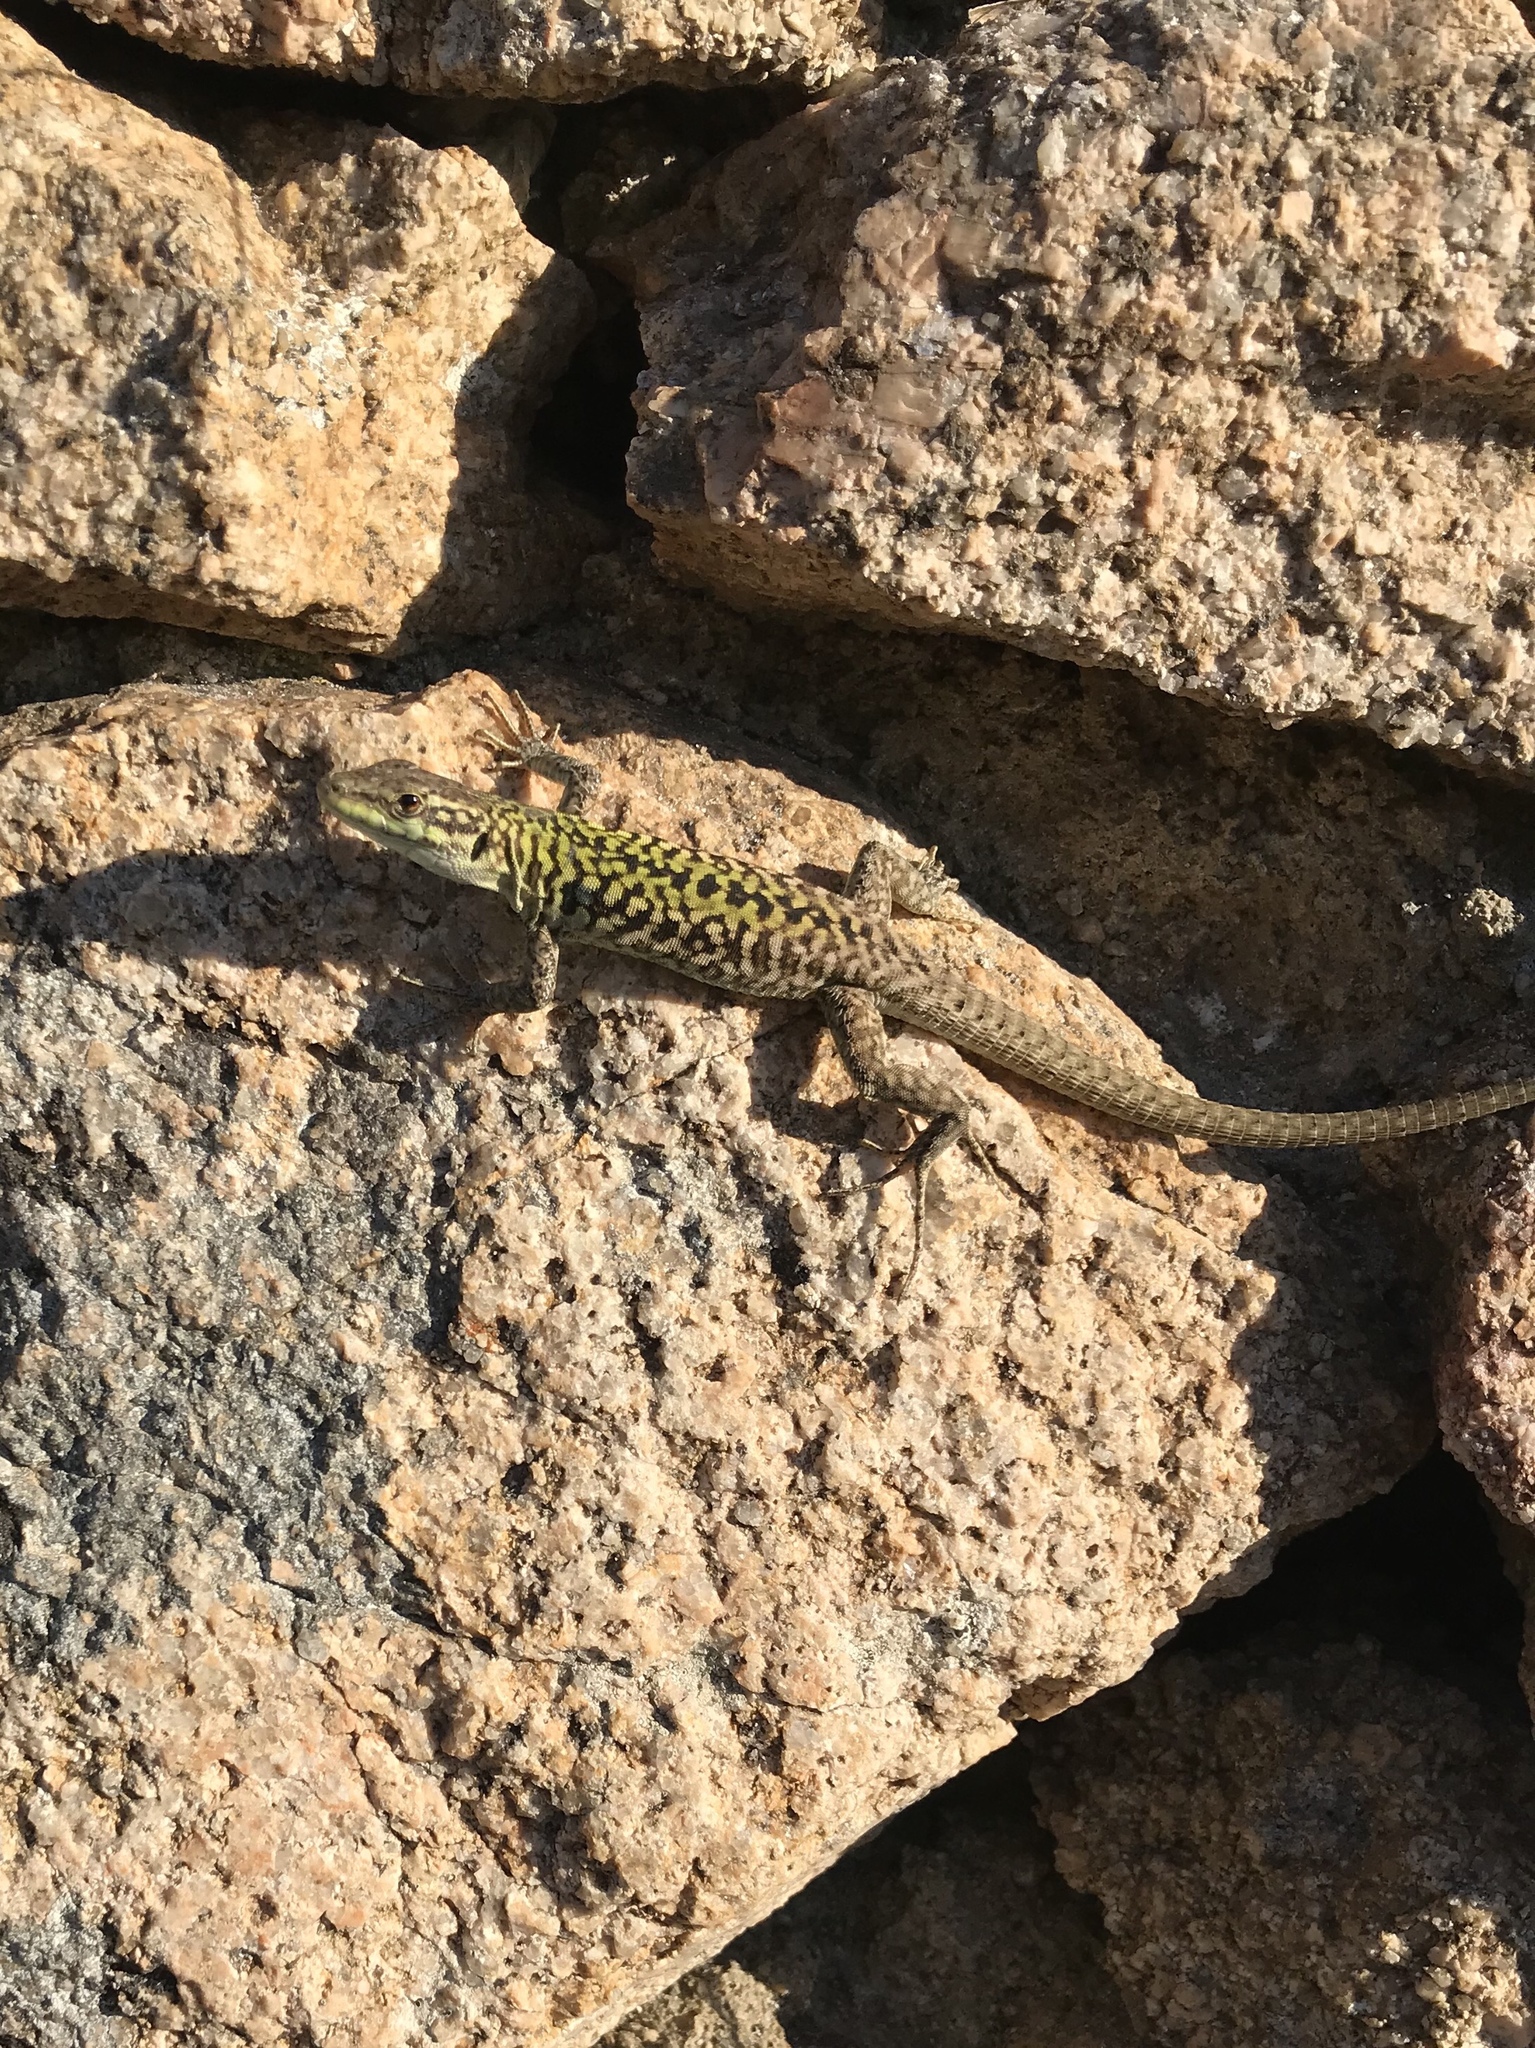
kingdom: Animalia
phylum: Chordata
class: Squamata
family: Lacertidae
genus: Podarcis
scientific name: Podarcis siculus
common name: Italian wall lizard
